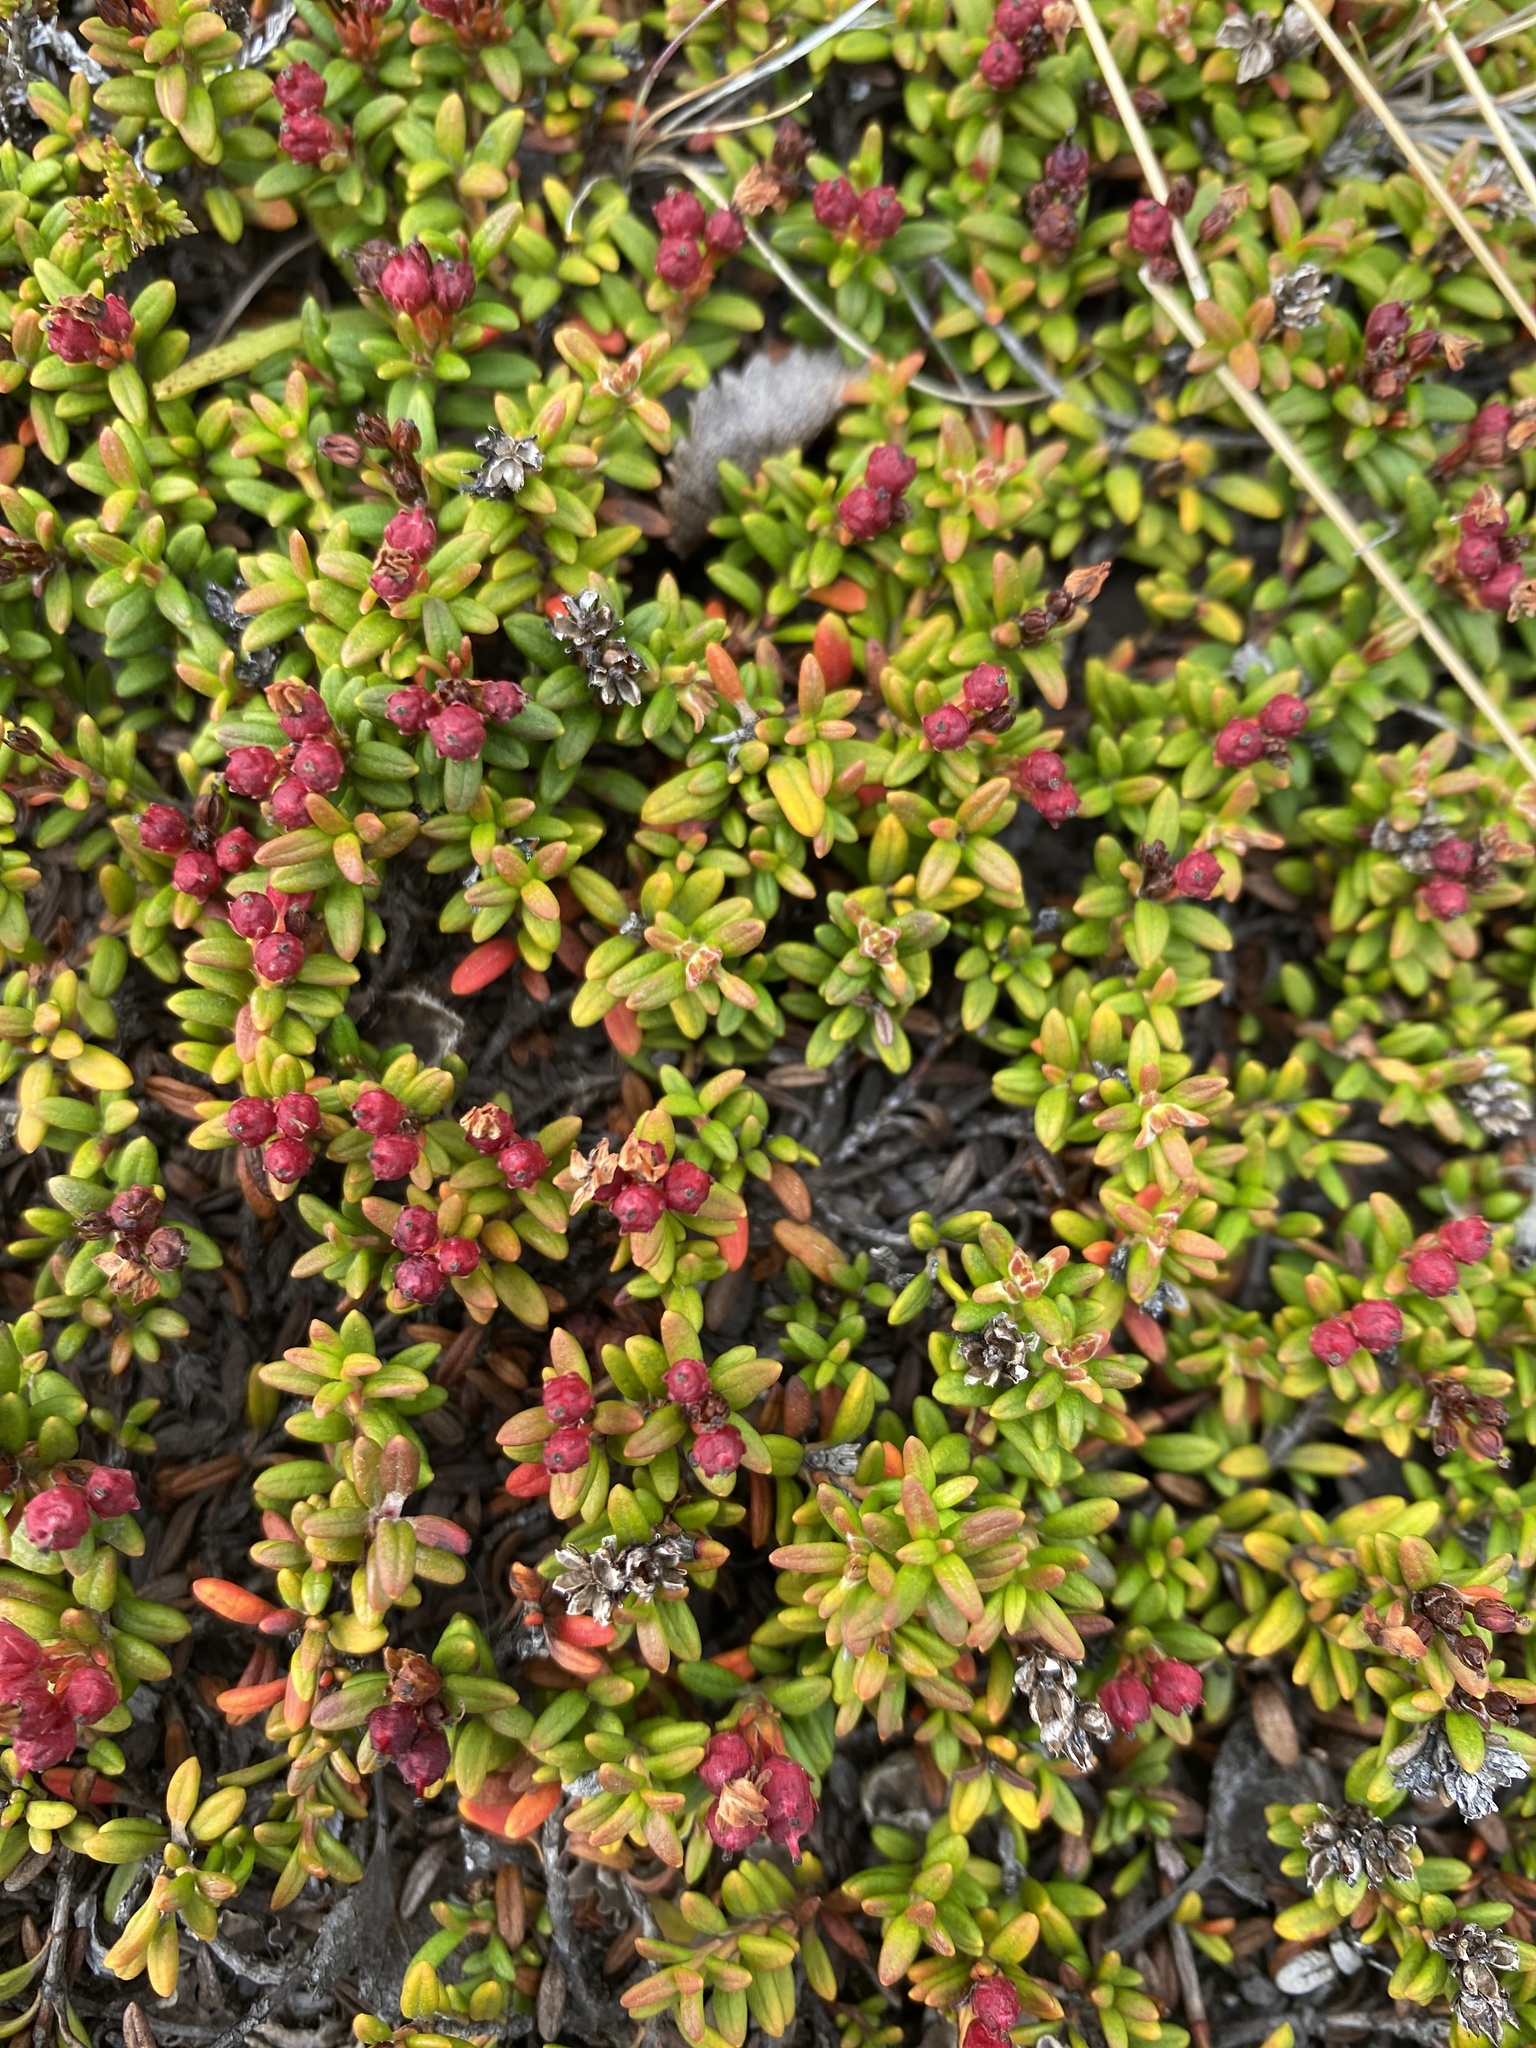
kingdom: Plantae
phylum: Tracheophyta
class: Magnoliopsida
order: Ericales
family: Ericaceae
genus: Kalmia
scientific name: Kalmia procumbens
